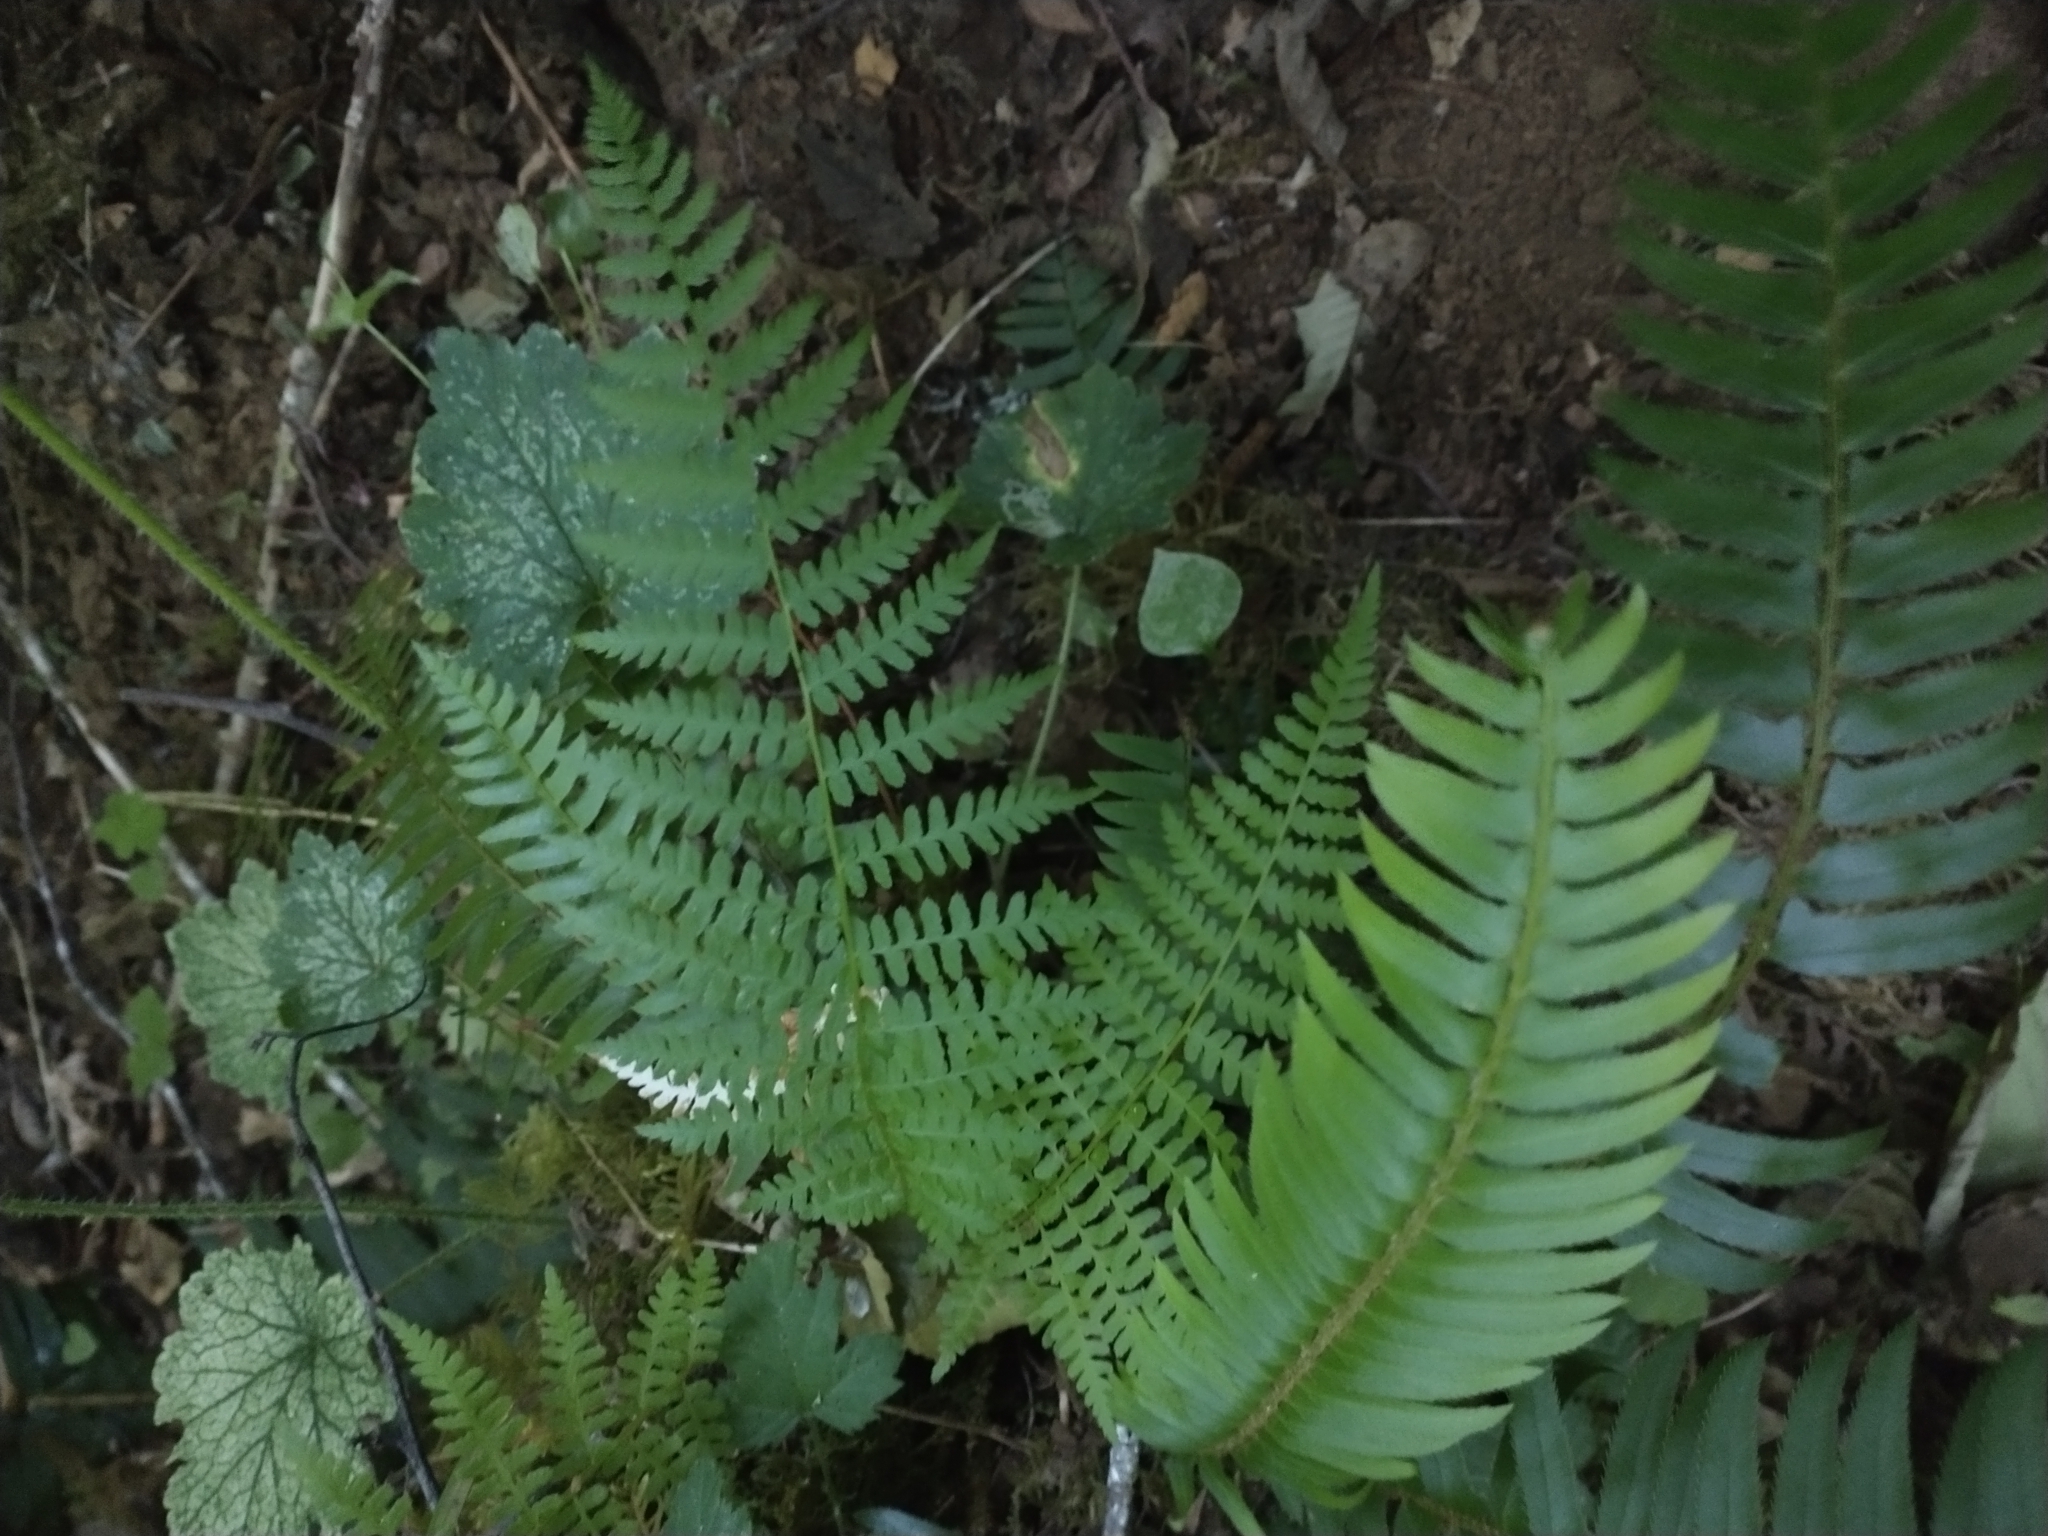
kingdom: Plantae
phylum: Tracheophyta
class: Polypodiopsida
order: Polypodiales
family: Dryopteridaceae
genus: Polystichum
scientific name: Polystichum munitum
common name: Western sword-fern
